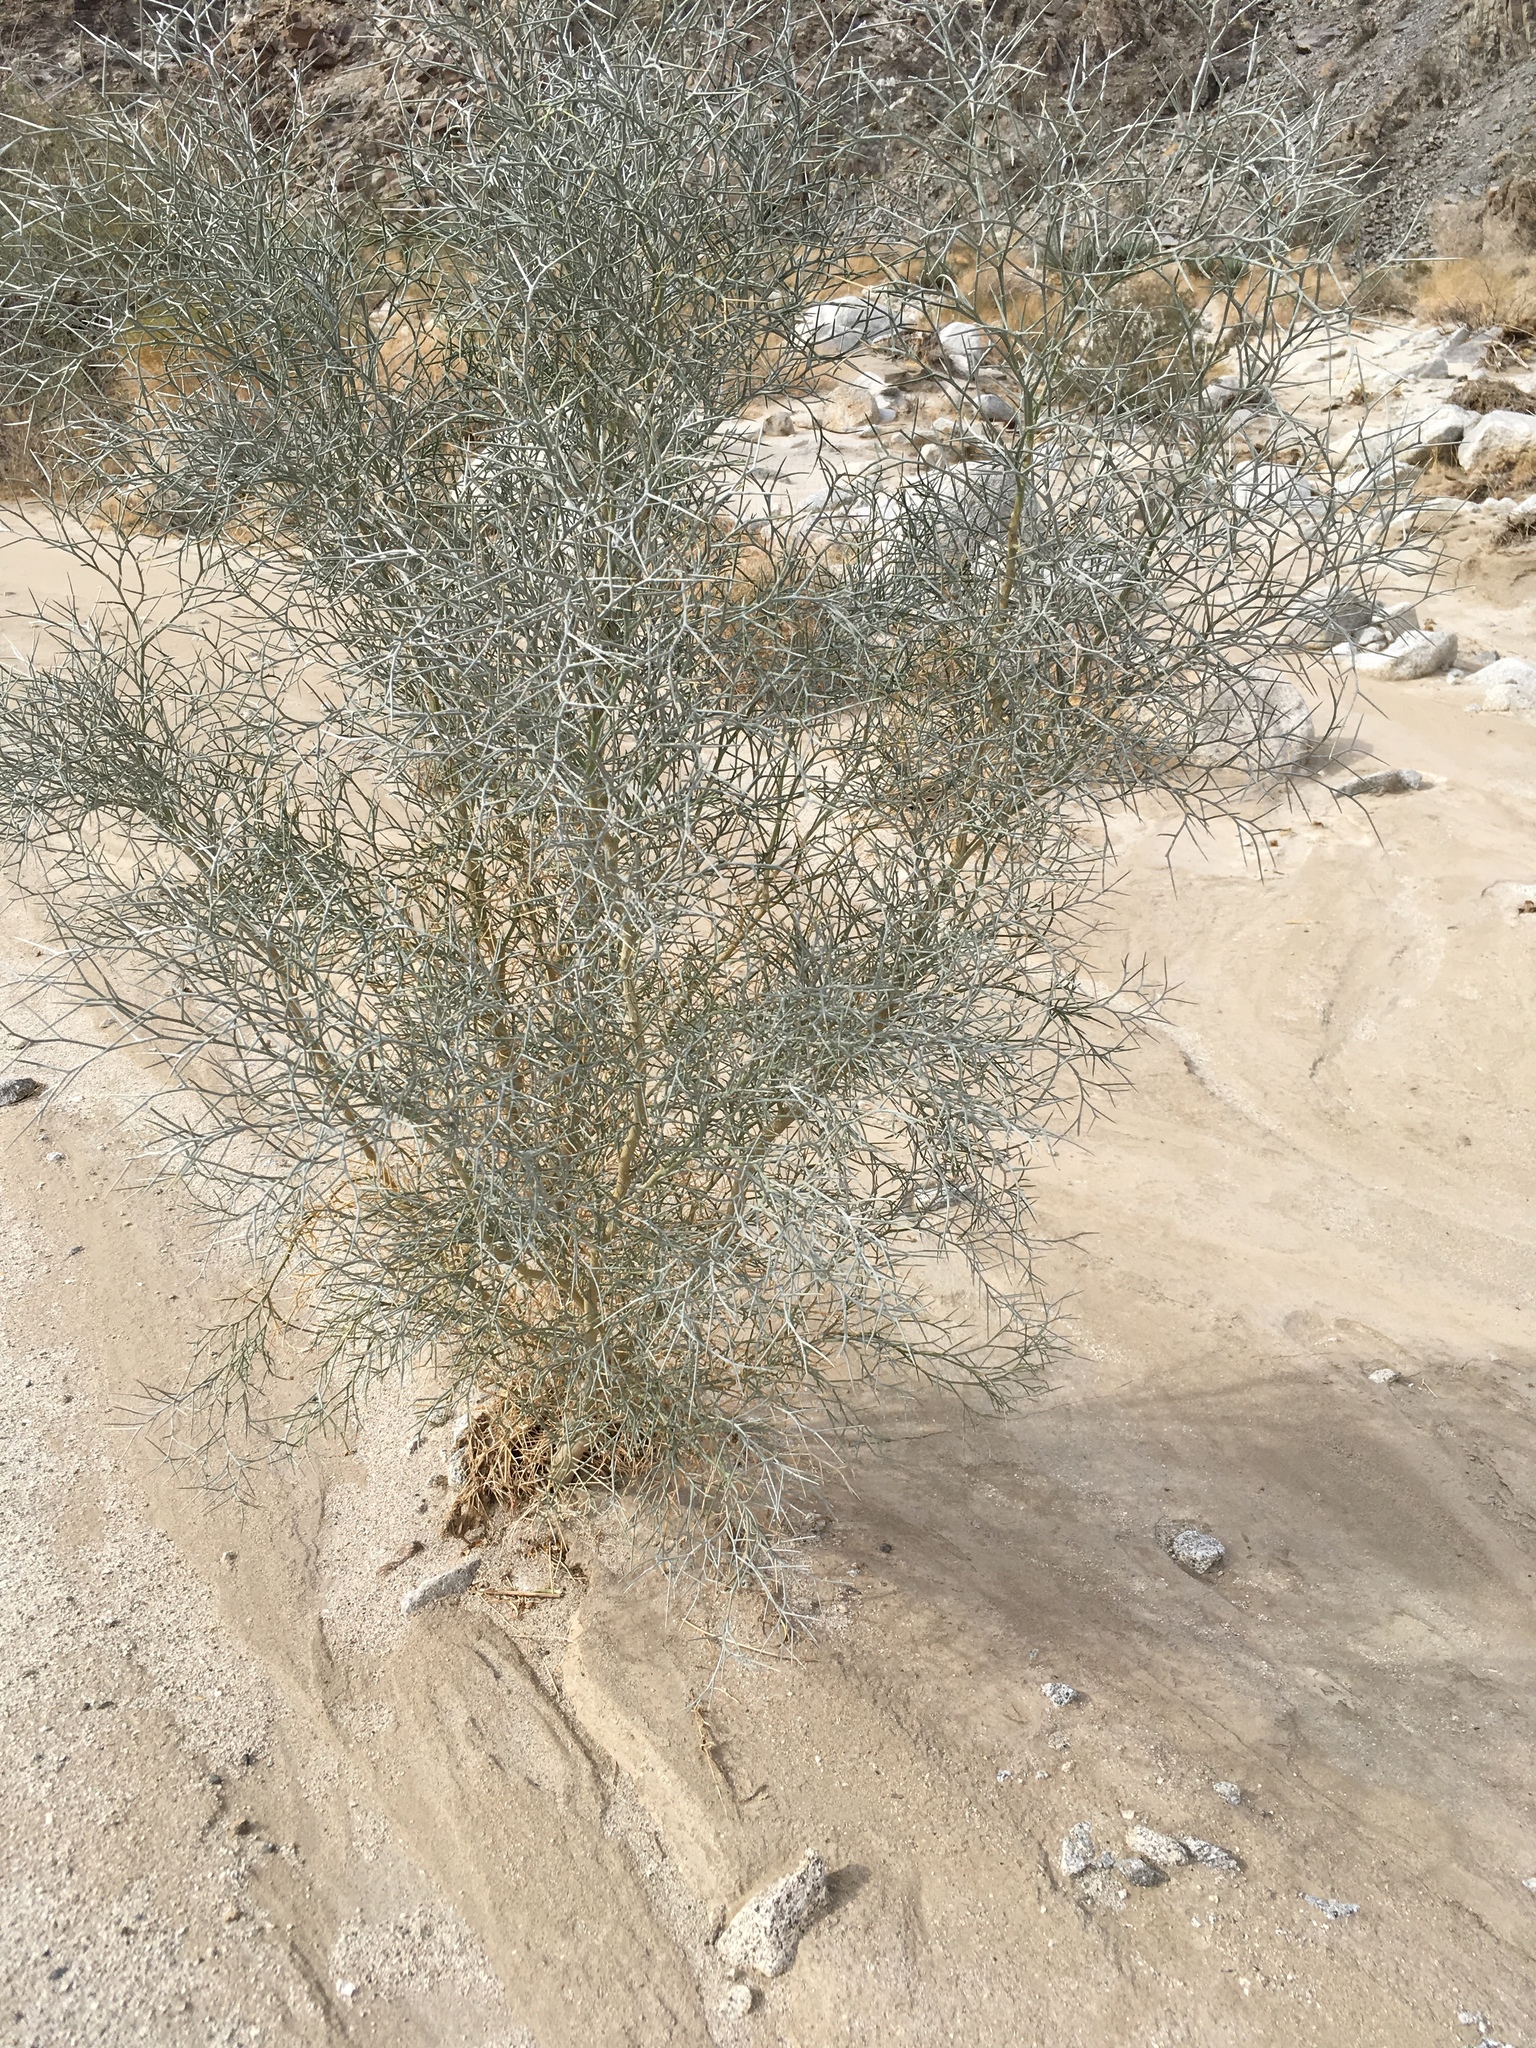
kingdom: Plantae
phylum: Tracheophyta
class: Magnoliopsida
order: Fabales
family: Fabaceae
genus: Psorothamnus
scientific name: Psorothamnus spinosus
